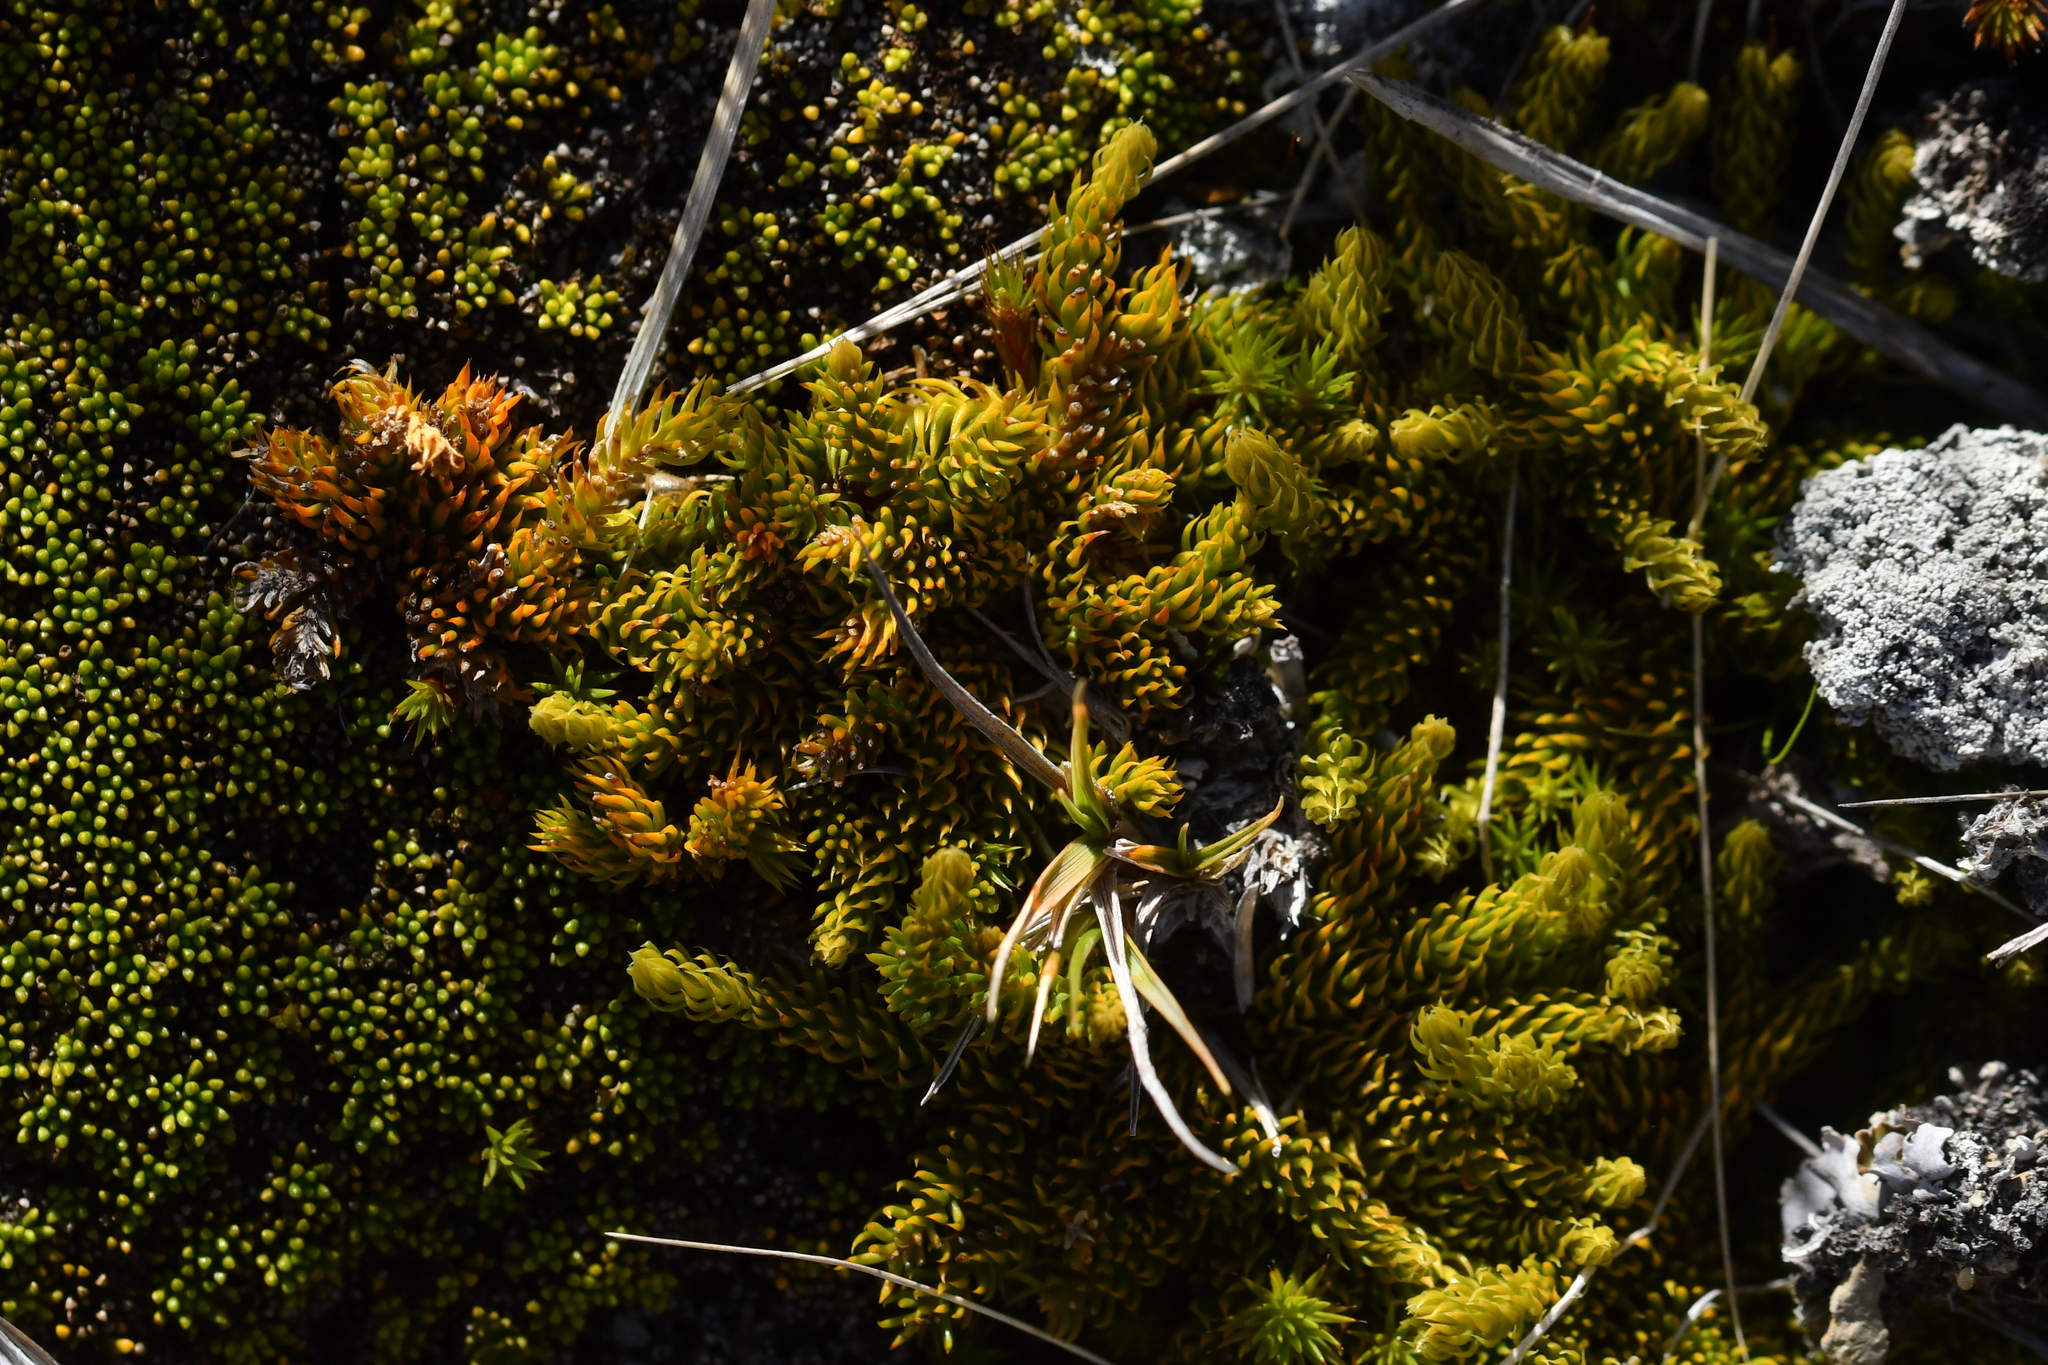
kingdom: Plantae
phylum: Tracheophyta
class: Lycopodiopsida
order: Lycopodiales
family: Lycopodiaceae
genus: Austrolycopodium
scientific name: Austrolycopodium fastigiatum
